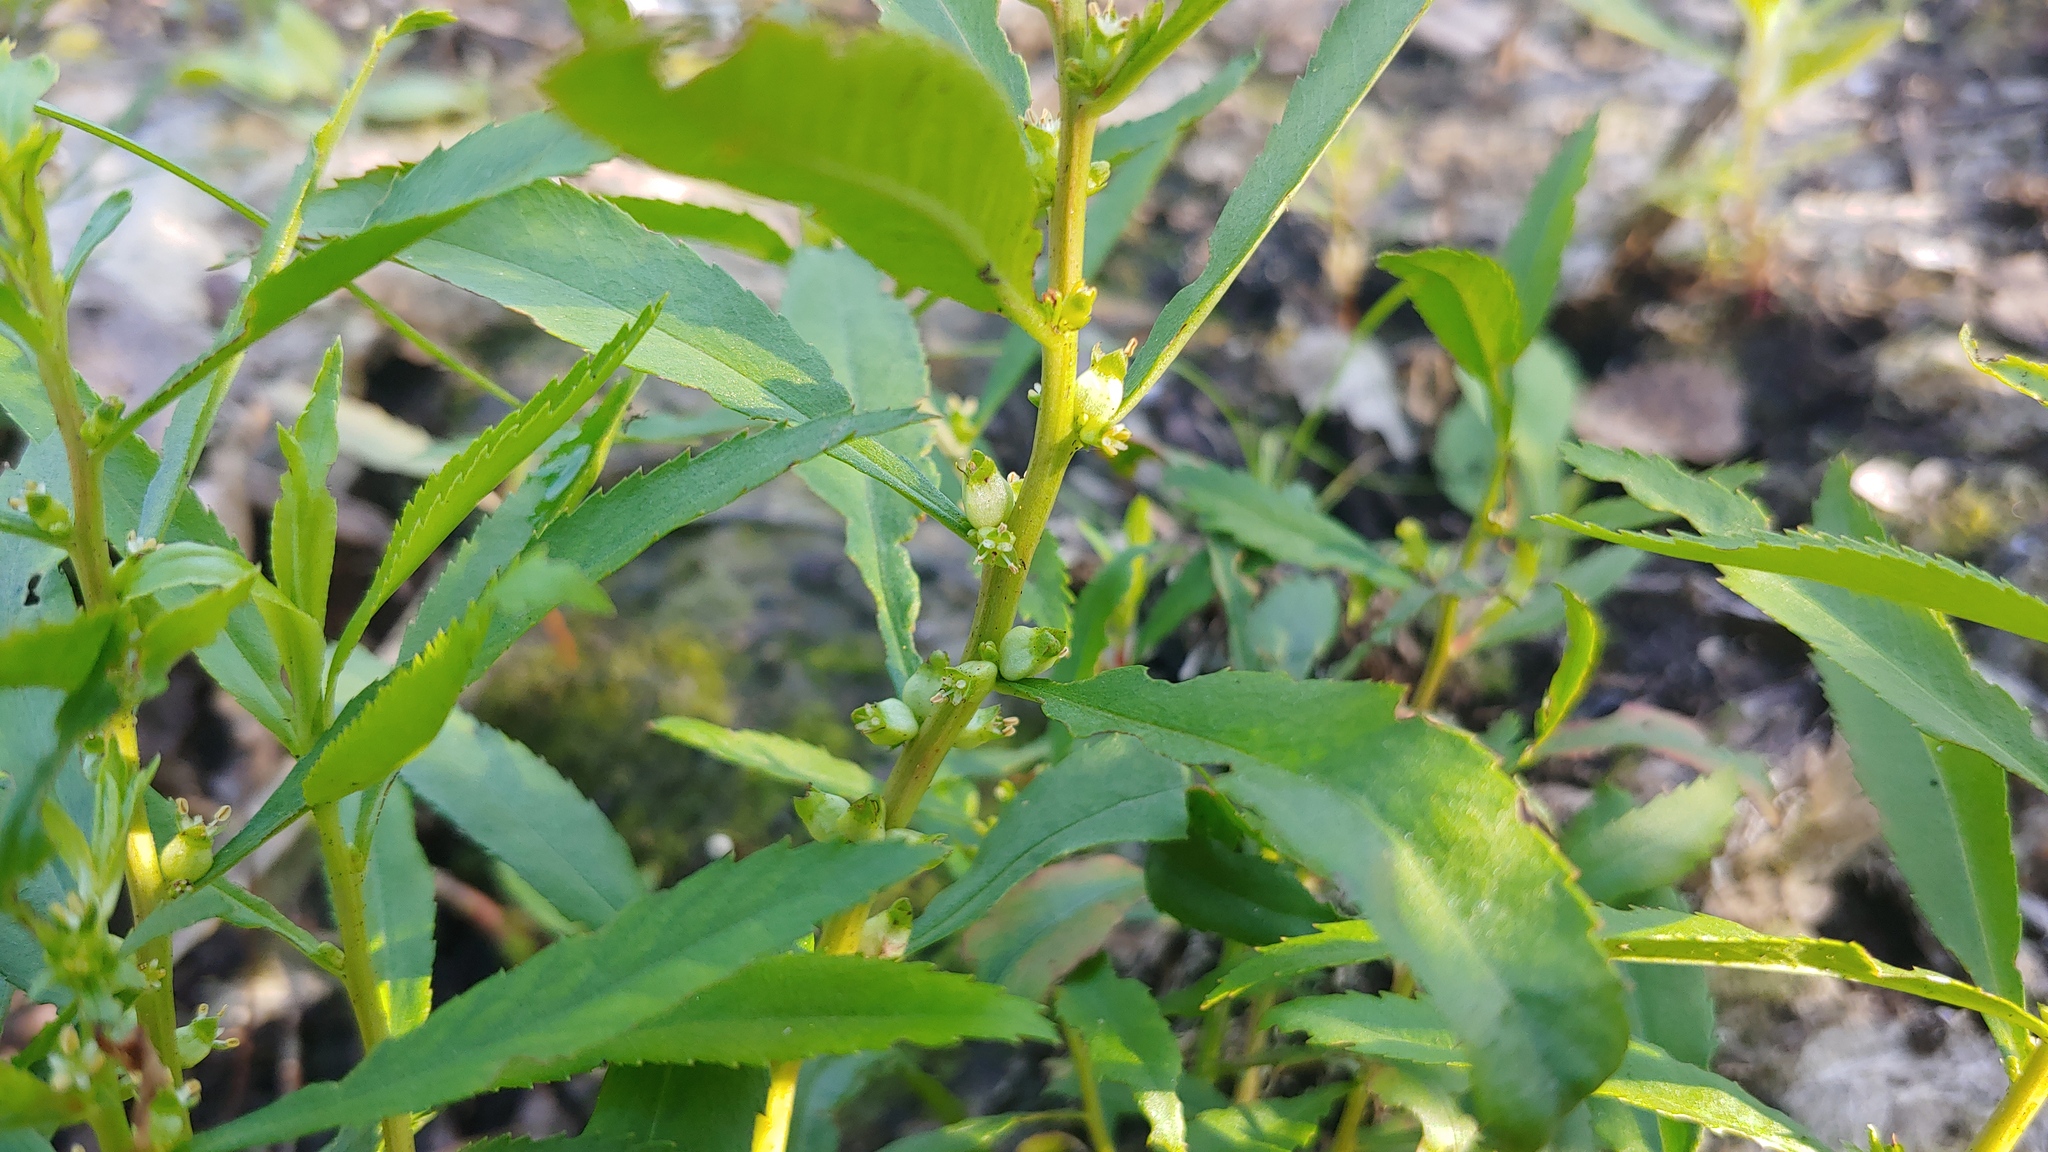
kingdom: Plantae
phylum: Tracheophyta
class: Magnoliopsida
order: Saxifragales
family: Haloragaceae
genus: Proserpinaca
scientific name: Proserpinaca palustris
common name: Marsh mermaidweed
